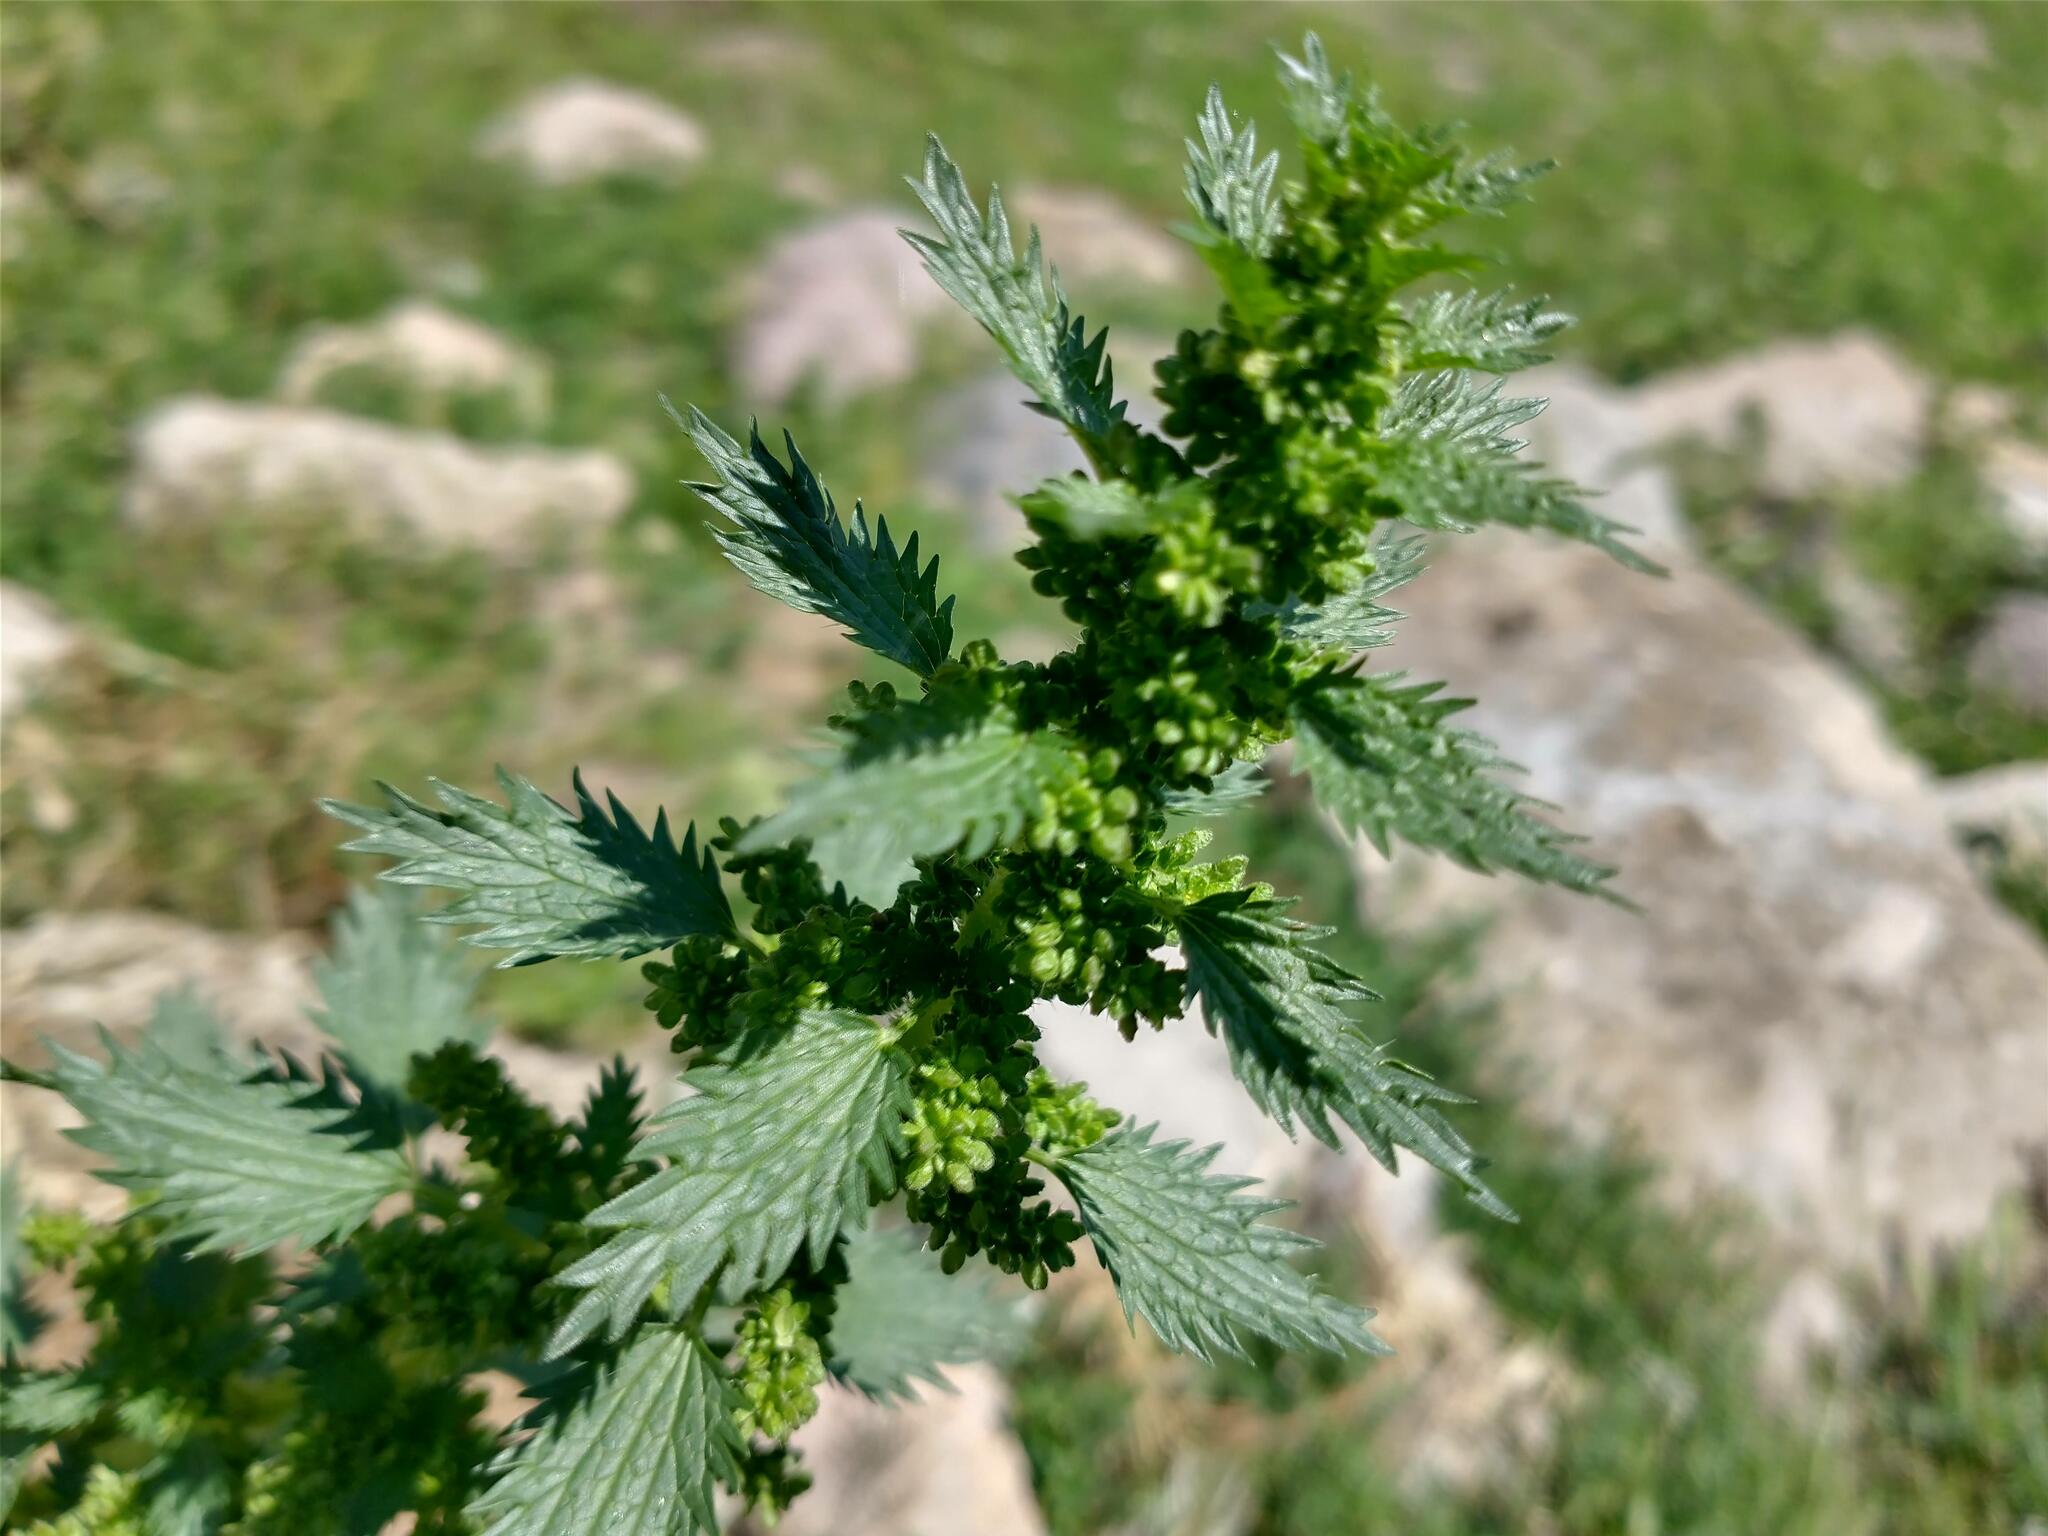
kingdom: Plantae
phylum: Tracheophyta
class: Magnoliopsida
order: Rosales
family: Urticaceae
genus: Urtica
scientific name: Urtica urens
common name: Dwarf nettle
